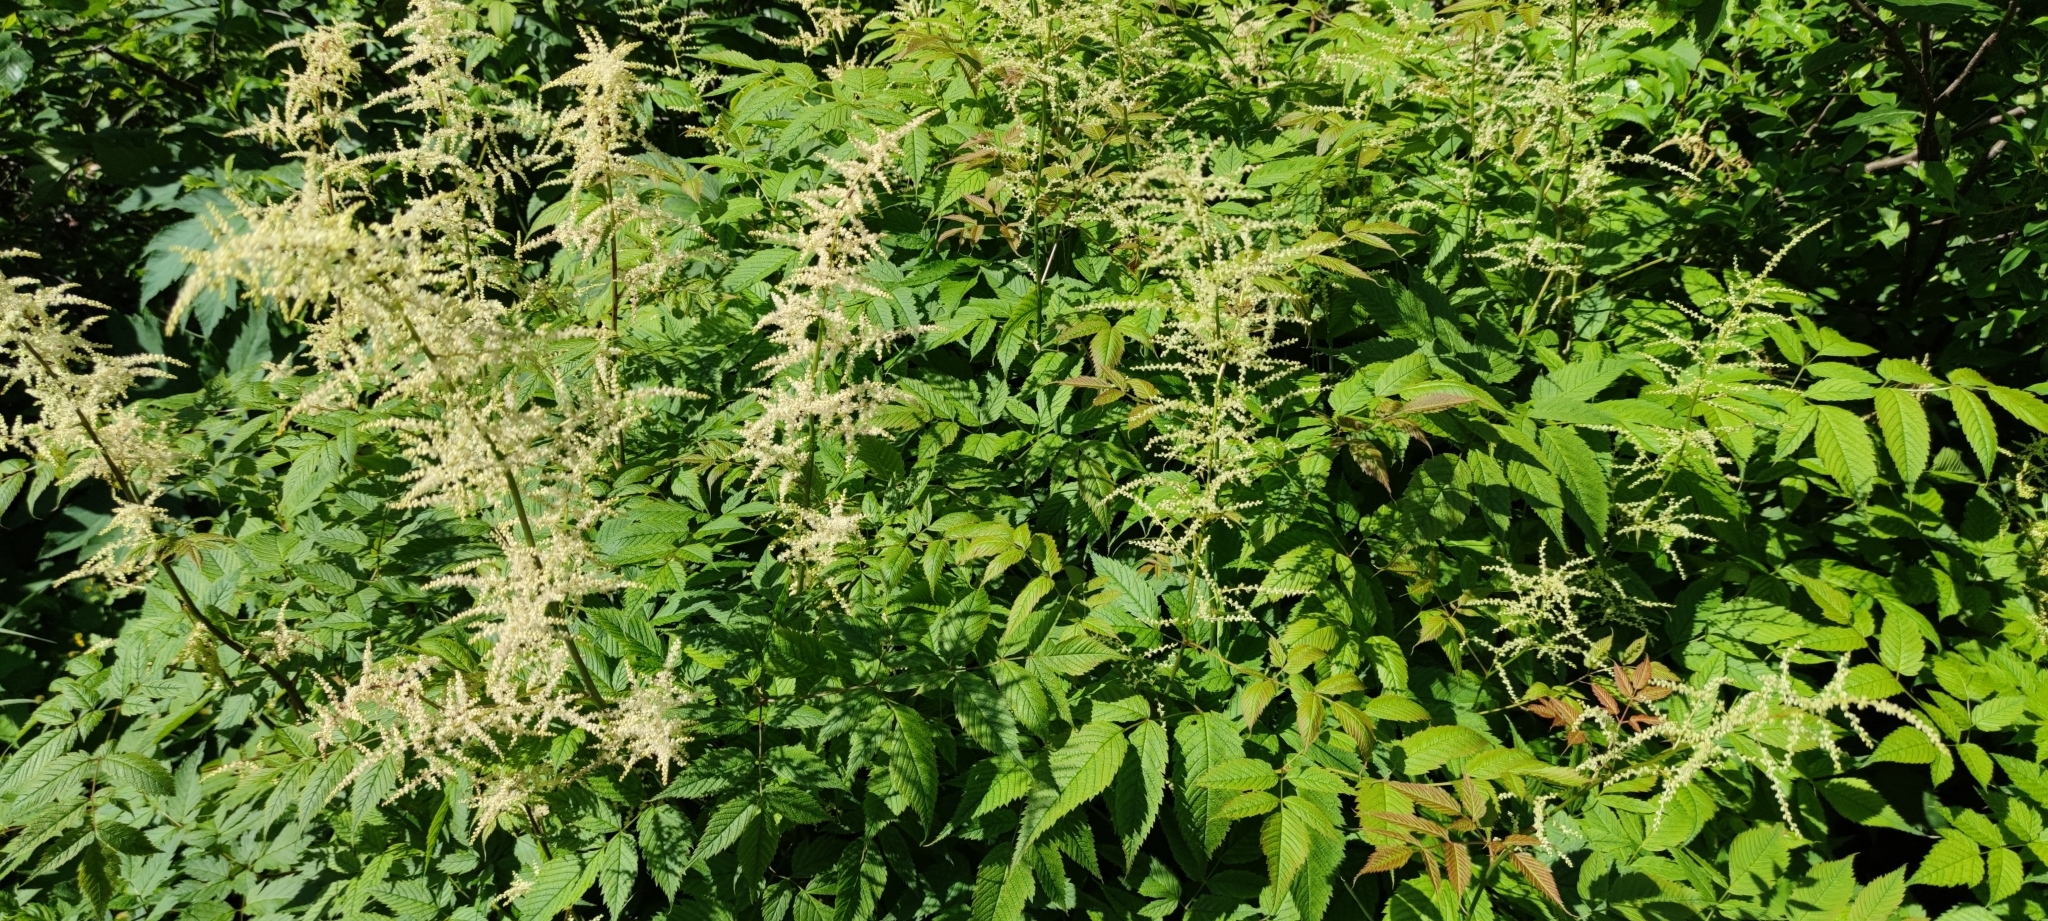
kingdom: Plantae
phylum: Tracheophyta
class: Magnoliopsida
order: Rosales
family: Rosaceae
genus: Aruncus
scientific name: Aruncus dioicus
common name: Buck's-beard
